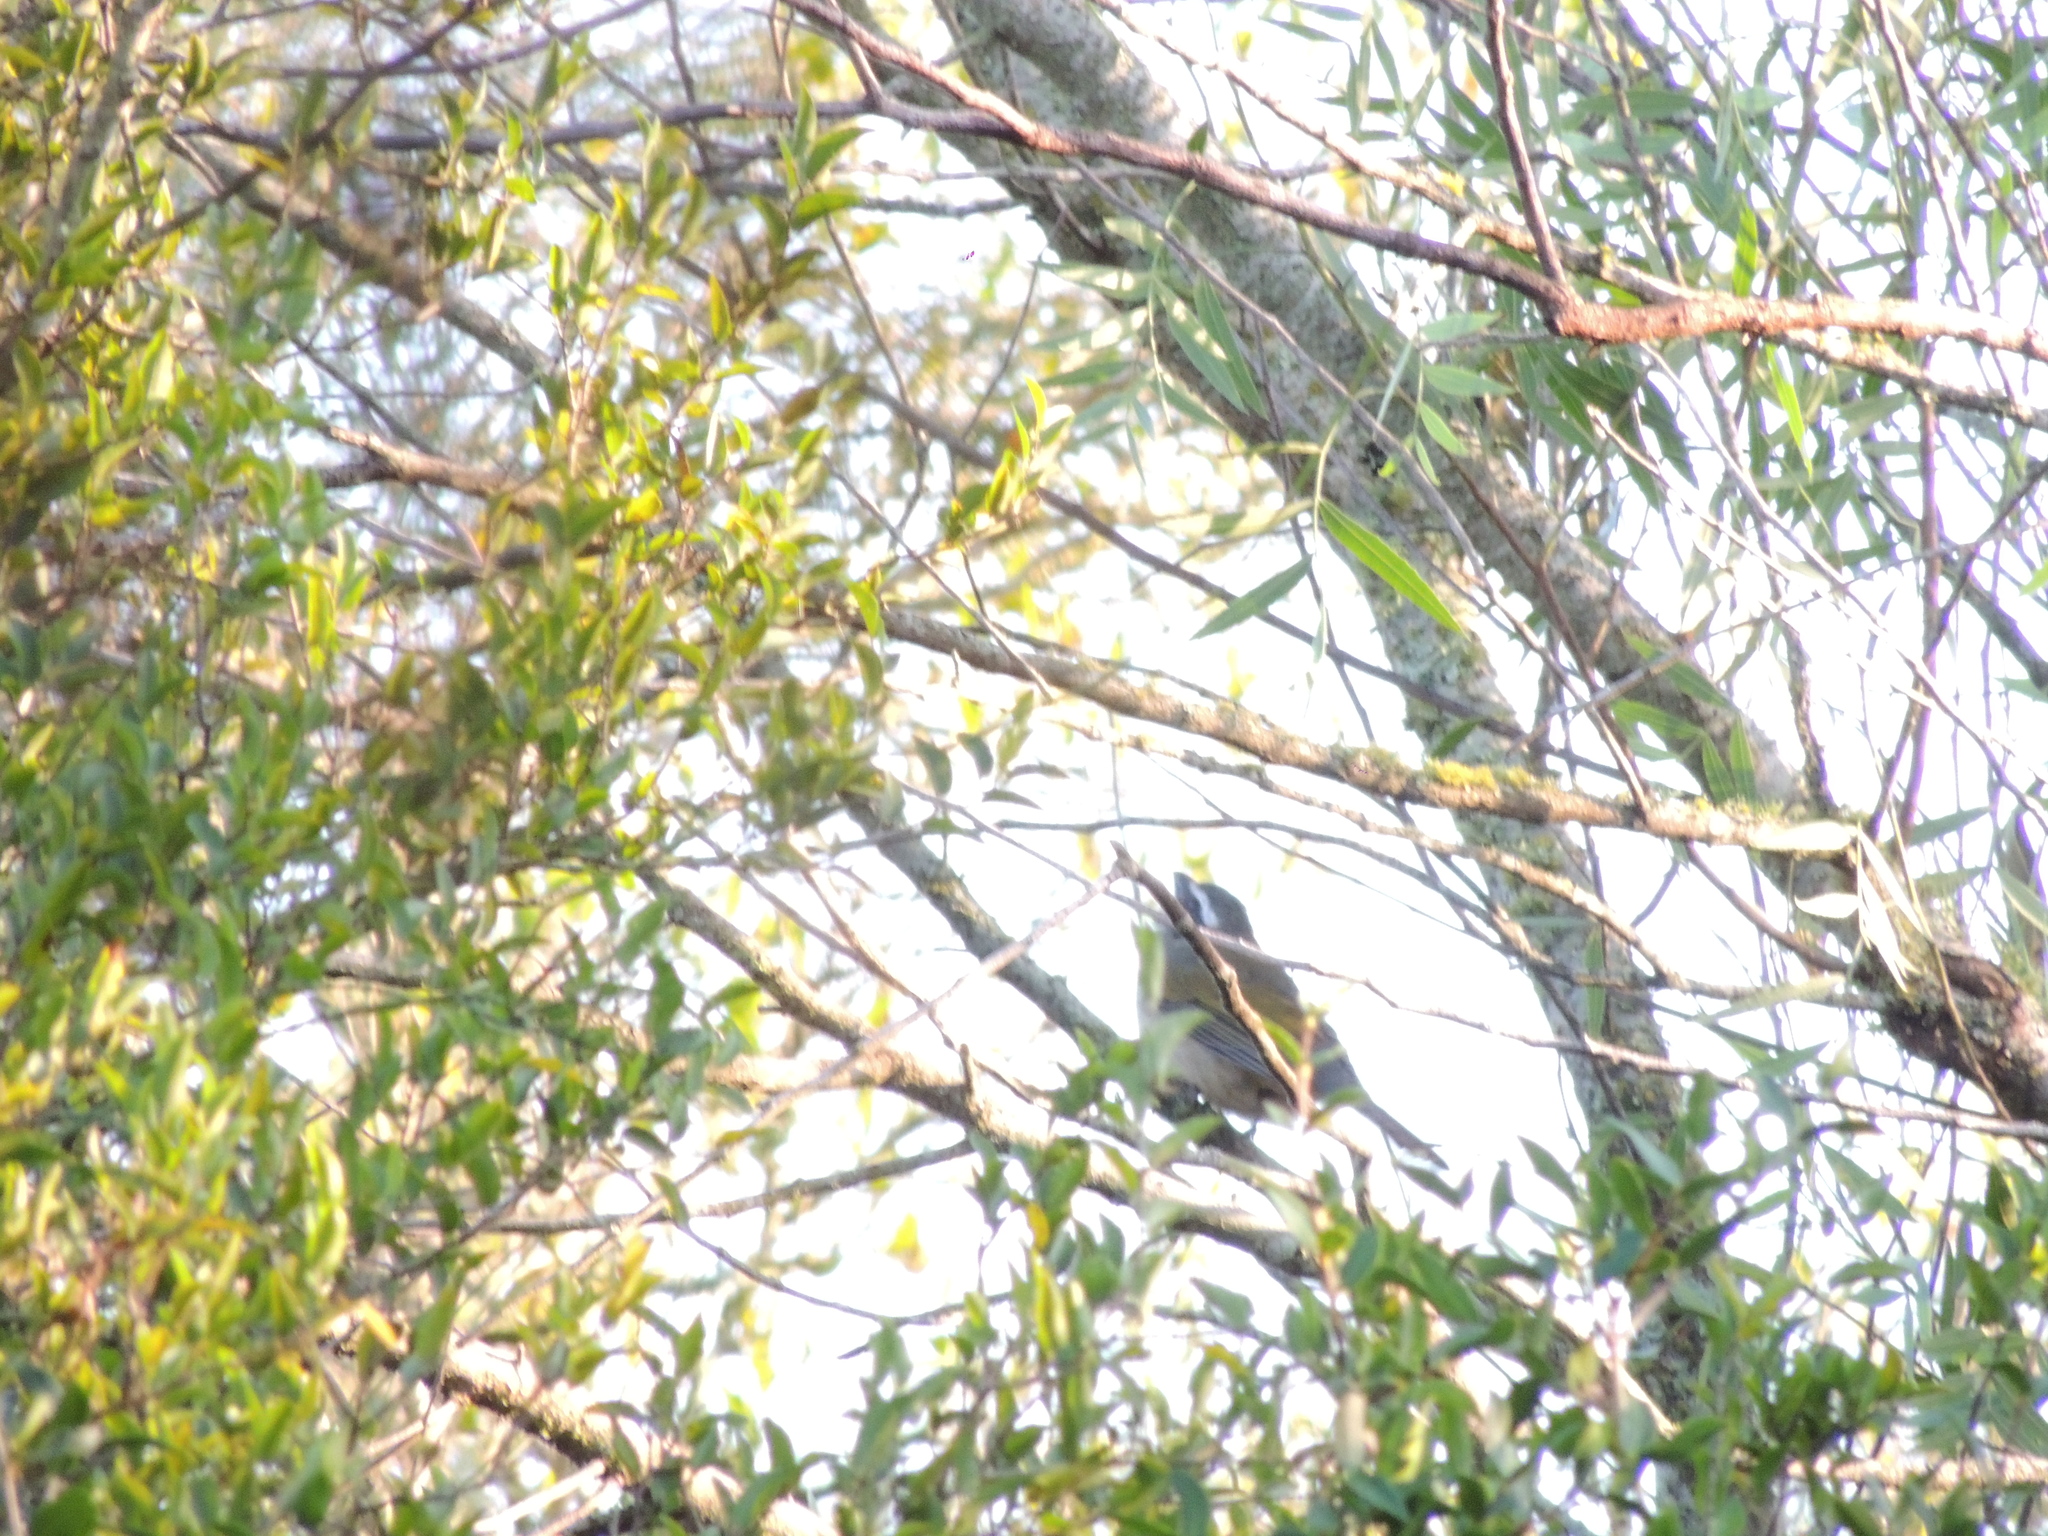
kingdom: Animalia
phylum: Chordata
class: Aves
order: Passeriformes
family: Thraupidae
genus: Saltator
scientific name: Saltator similis
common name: Green-winged saltator
